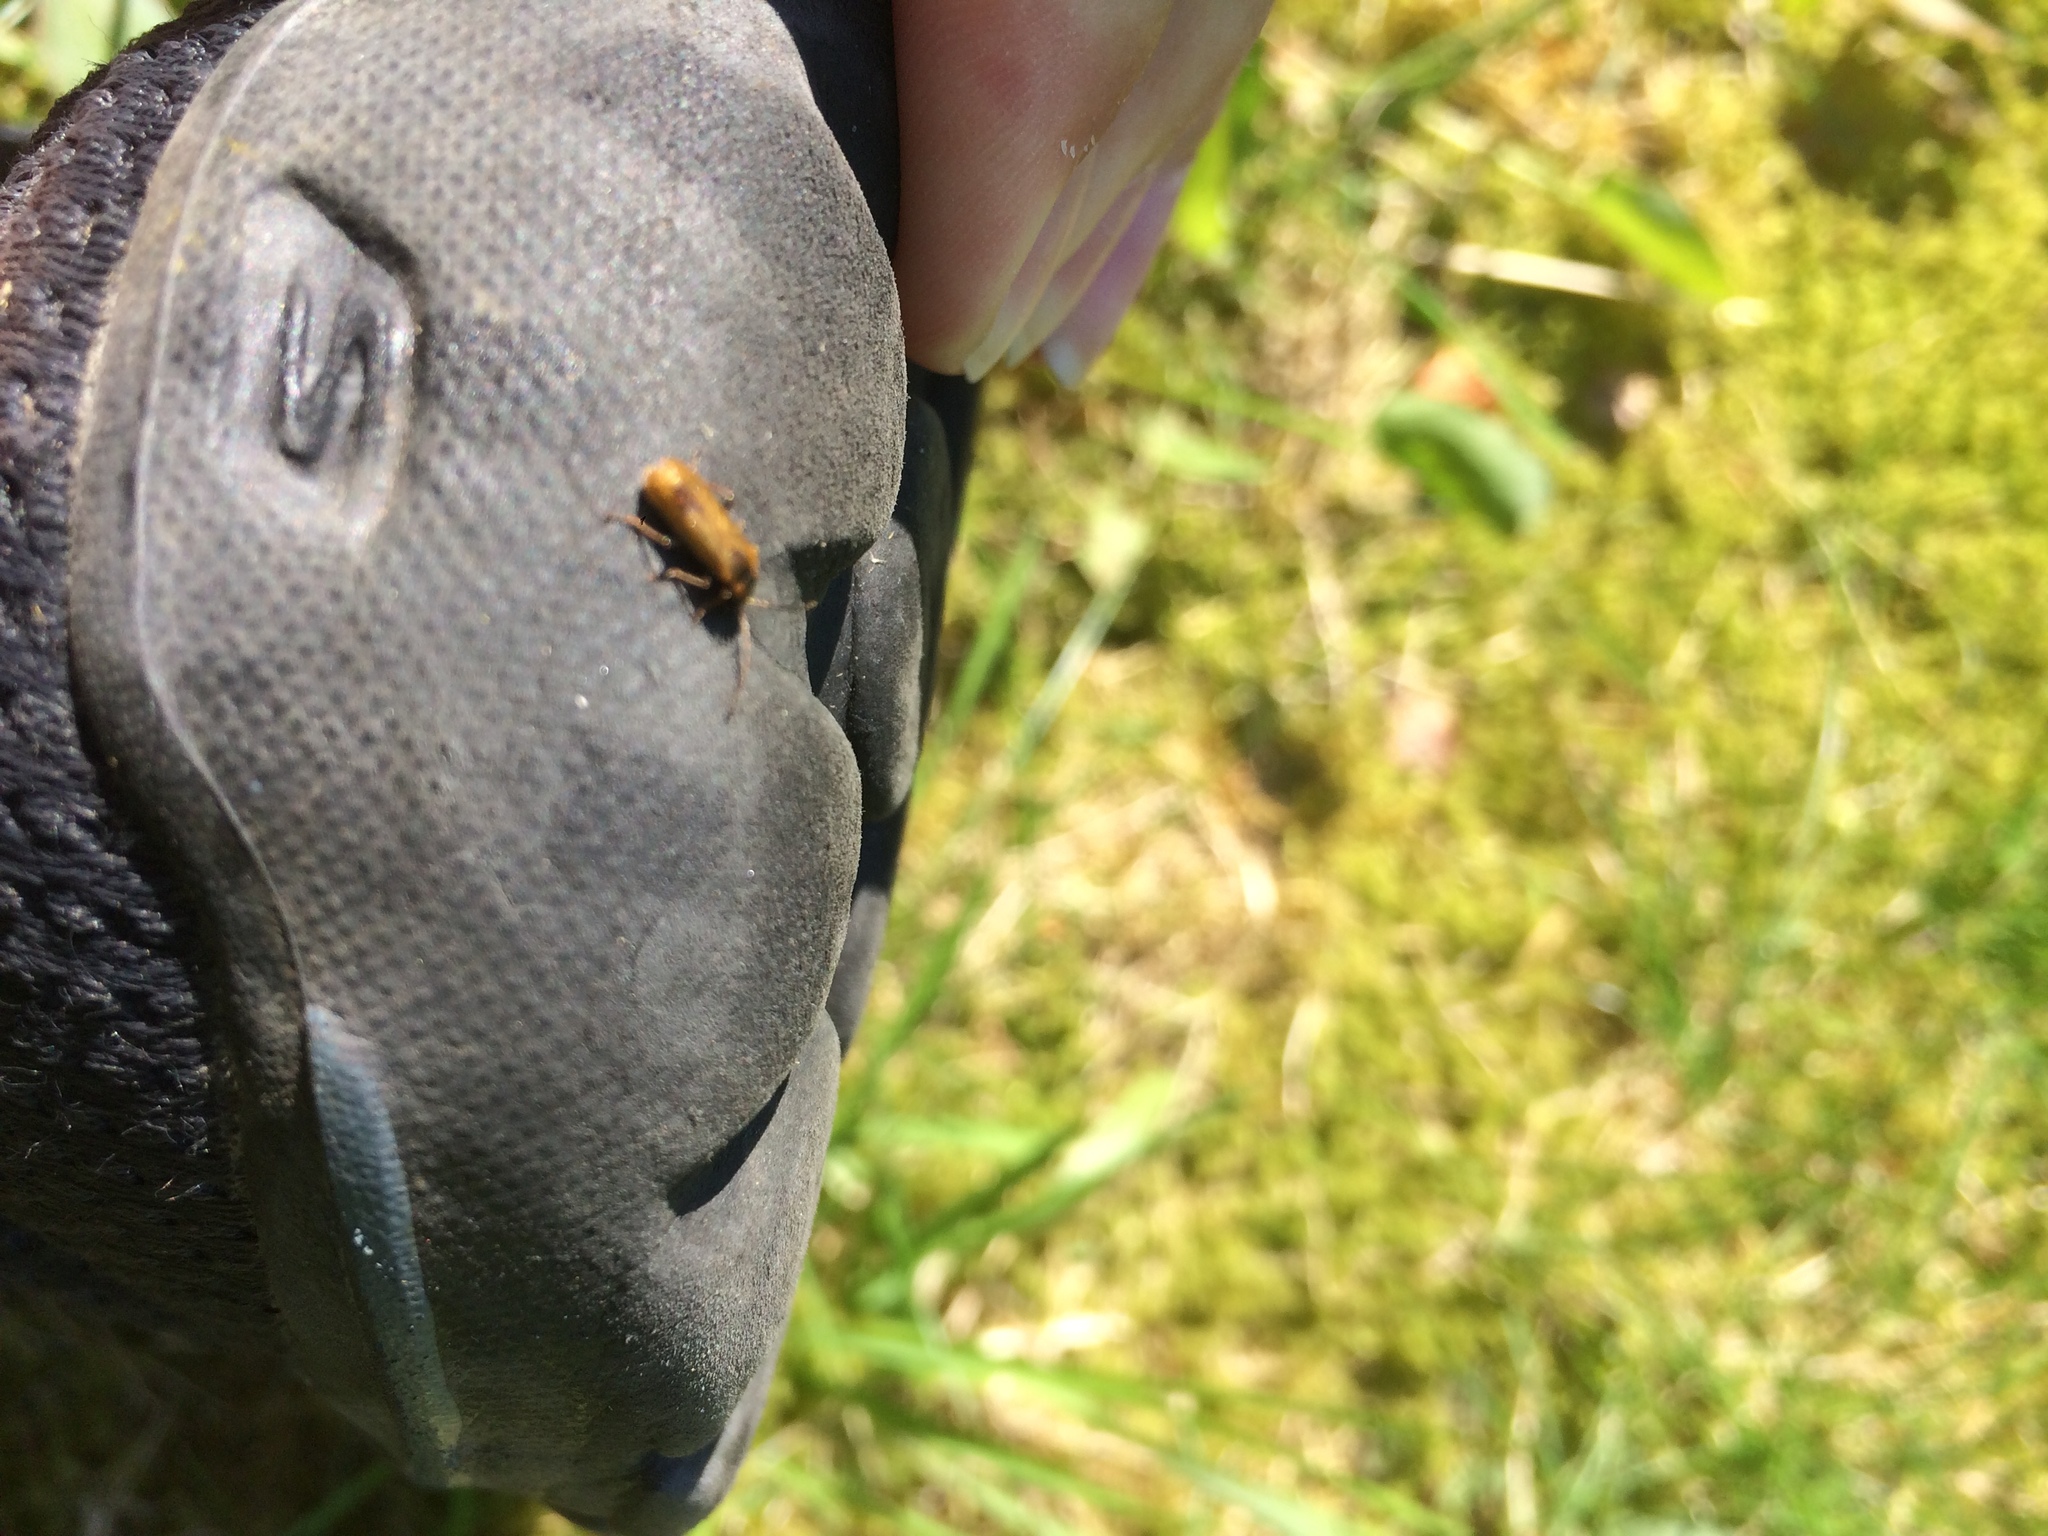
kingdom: Animalia
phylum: Arthropoda
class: Insecta
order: Coleoptera
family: Cantharidae
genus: Rhagonycha
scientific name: Rhagonycha nigriventris
